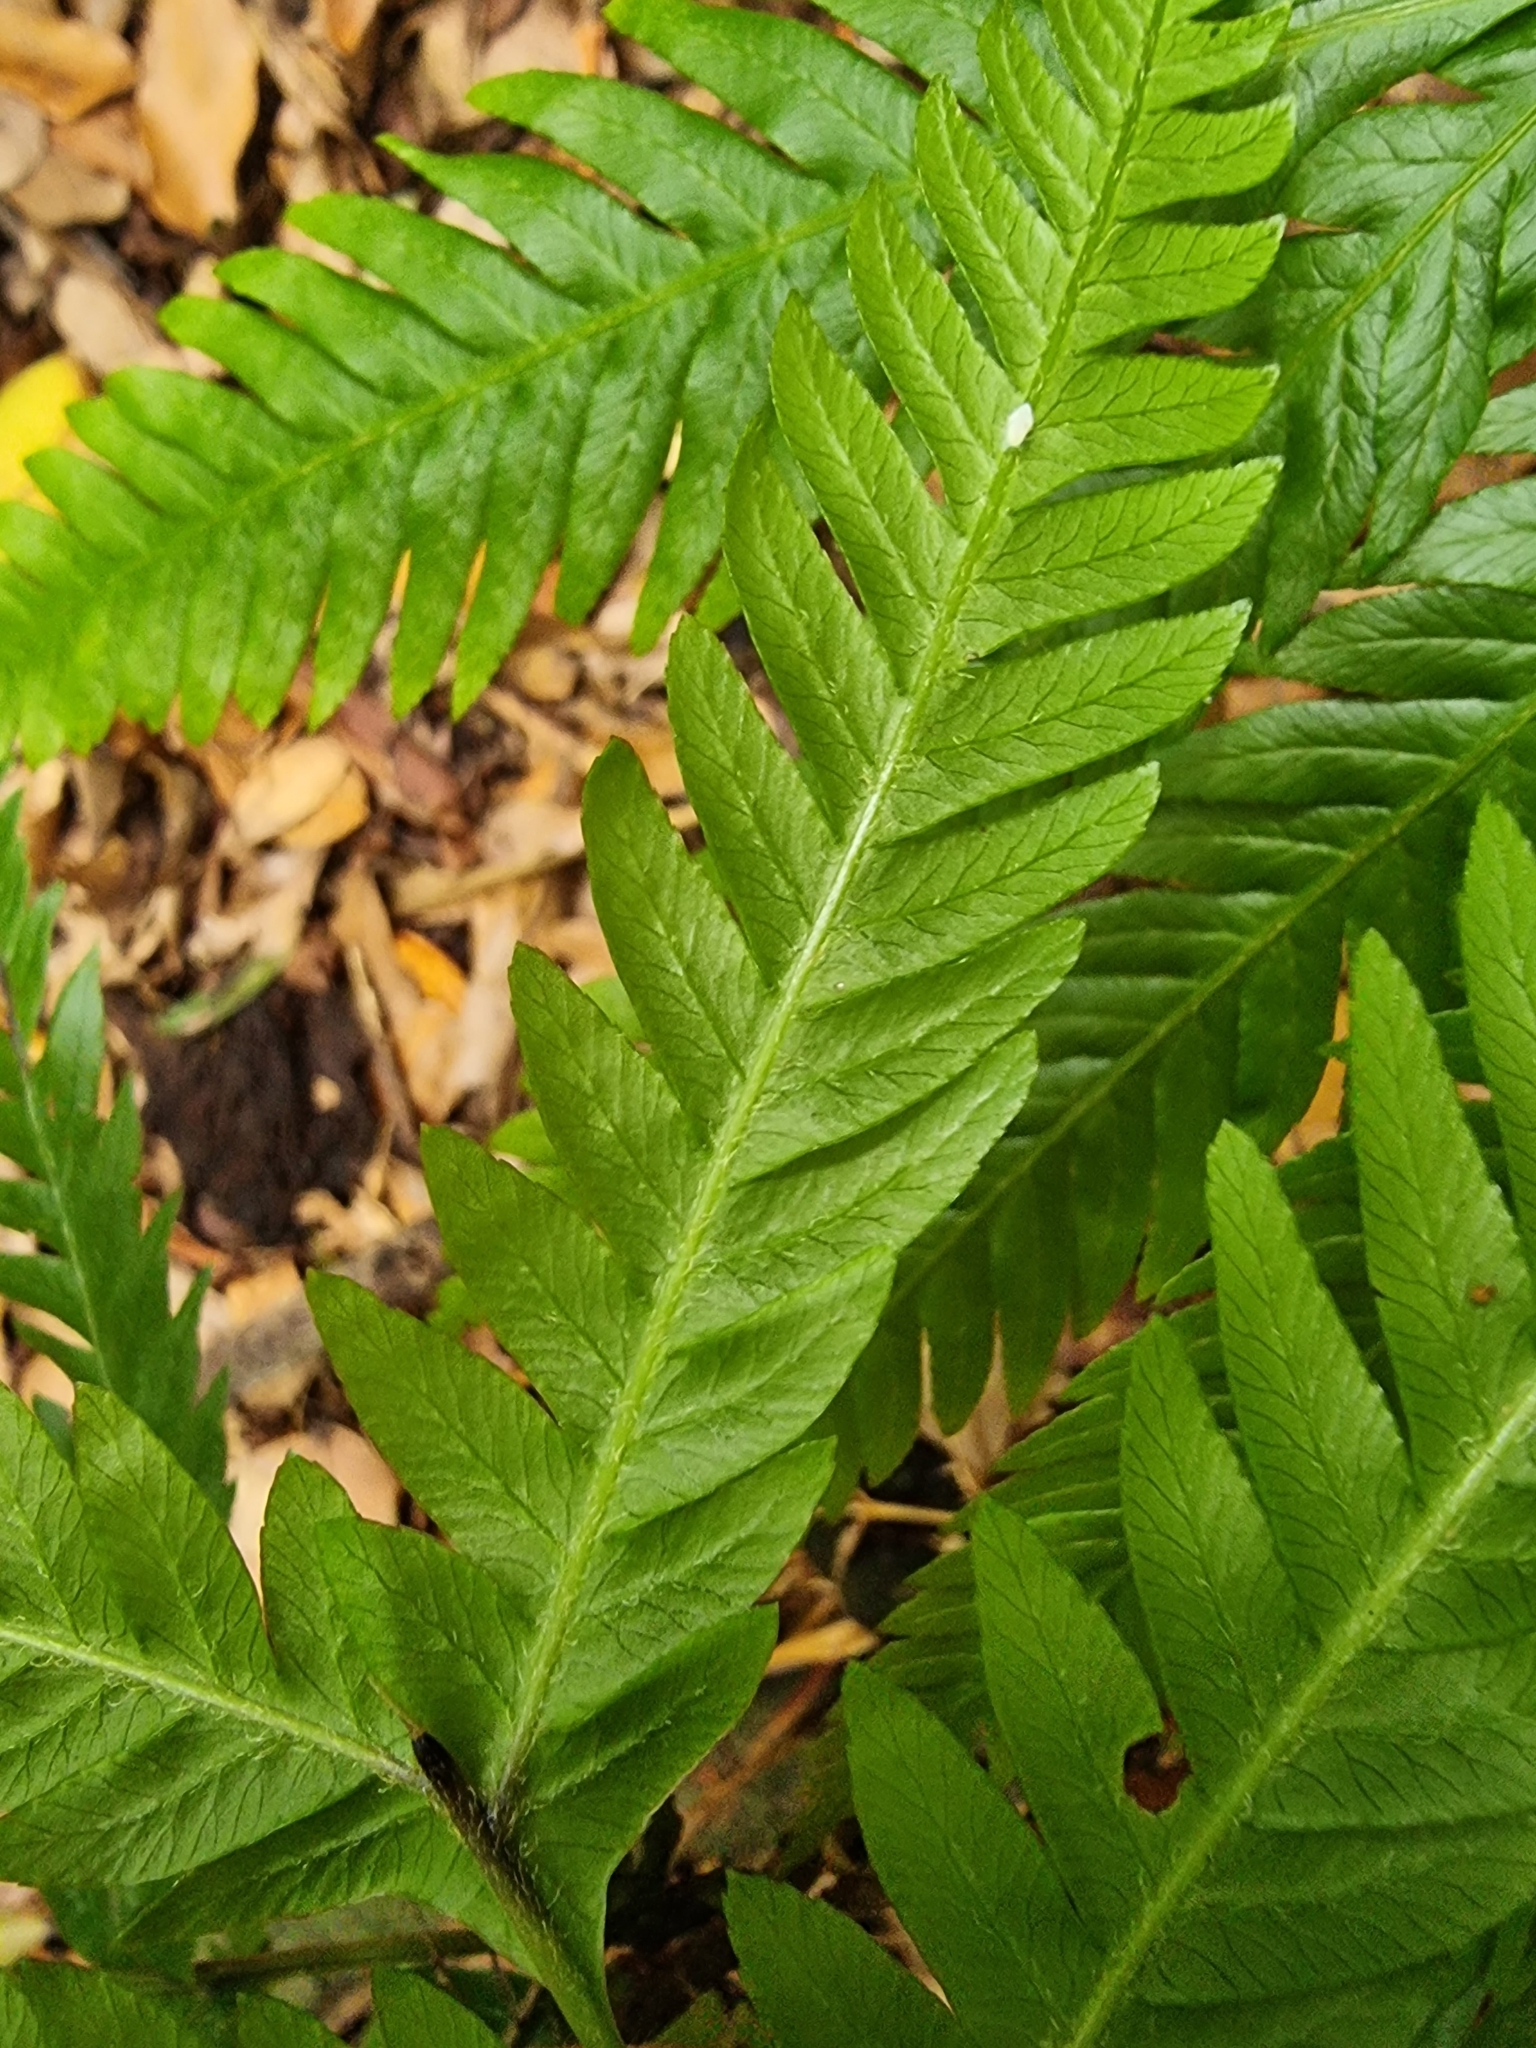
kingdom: Plantae
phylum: Tracheophyta
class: Polypodiopsida
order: Polypodiales
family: Pteridaceae
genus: Pteris
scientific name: Pteris incompleta
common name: Laurisilva brake
